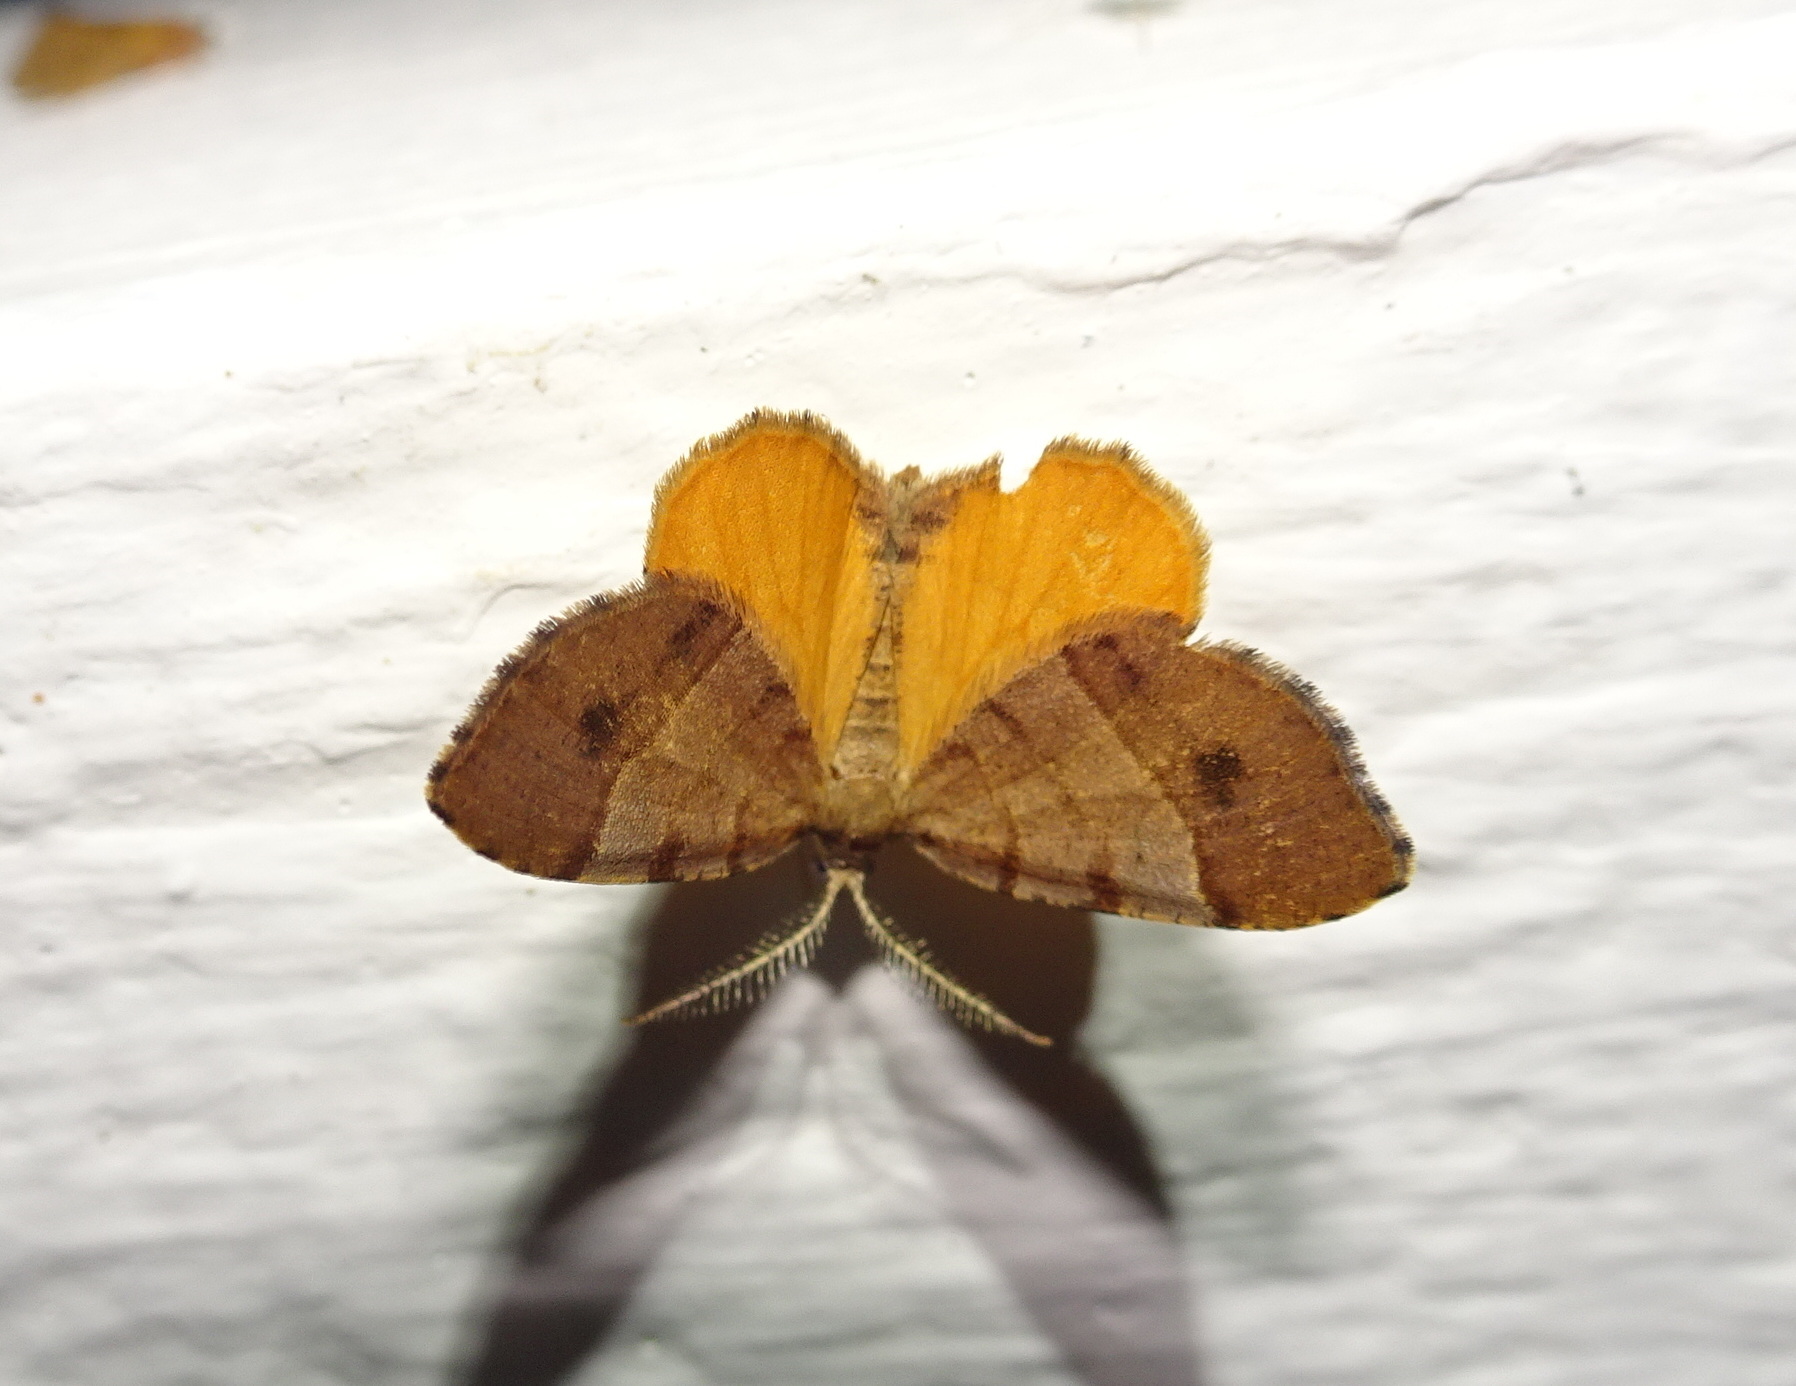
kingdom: Animalia
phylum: Arthropoda
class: Insecta
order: Lepidoptera
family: Geometridae
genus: Mellilla
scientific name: Mellilla xanthometata
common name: Orange wing moth
